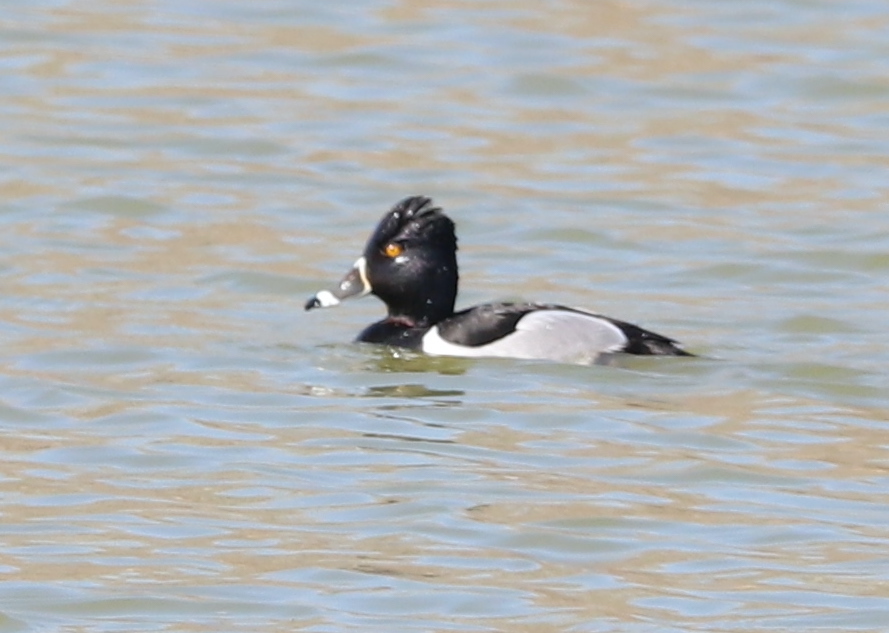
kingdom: Animalia
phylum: Chordata
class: Aves
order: Anseriformes
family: Anatidae
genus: Aythya
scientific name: Aythya collaris
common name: Ring-necked duck
